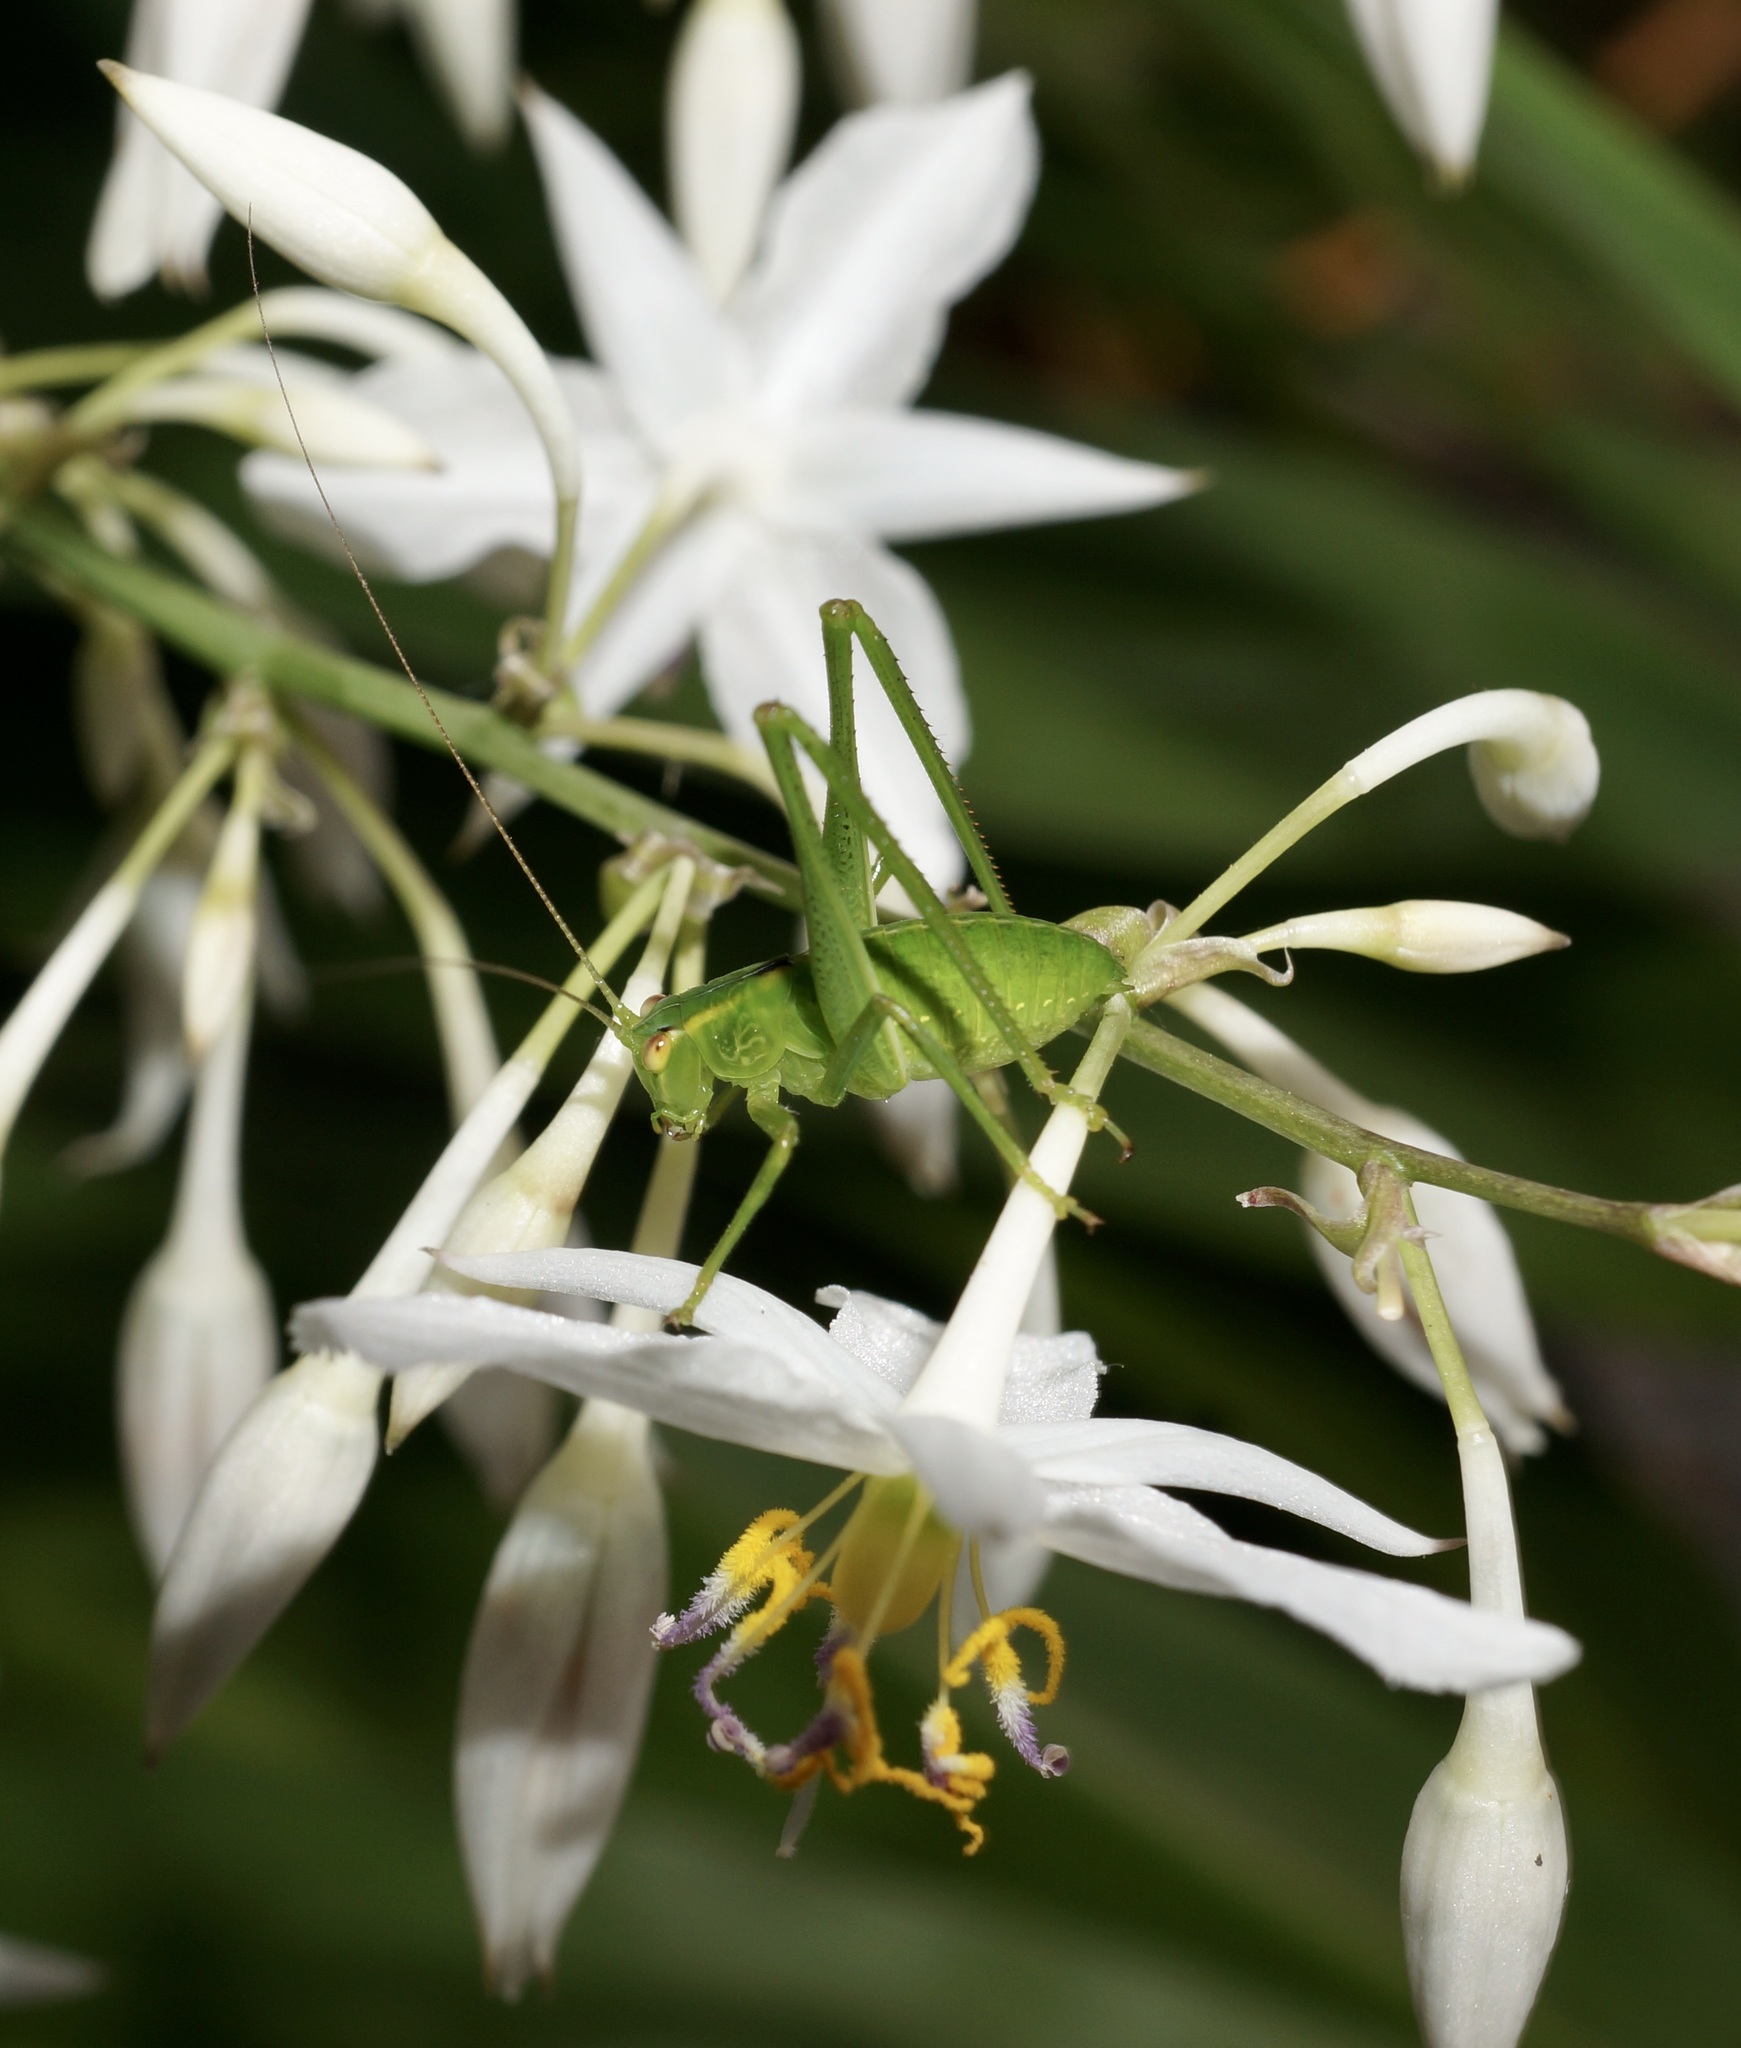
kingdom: Animalia
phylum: Arthropoda
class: Insecta
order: Orthoptera
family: Tettigoniidae
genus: Caedicia
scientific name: Caedicia simplex
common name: Common garden katydid
